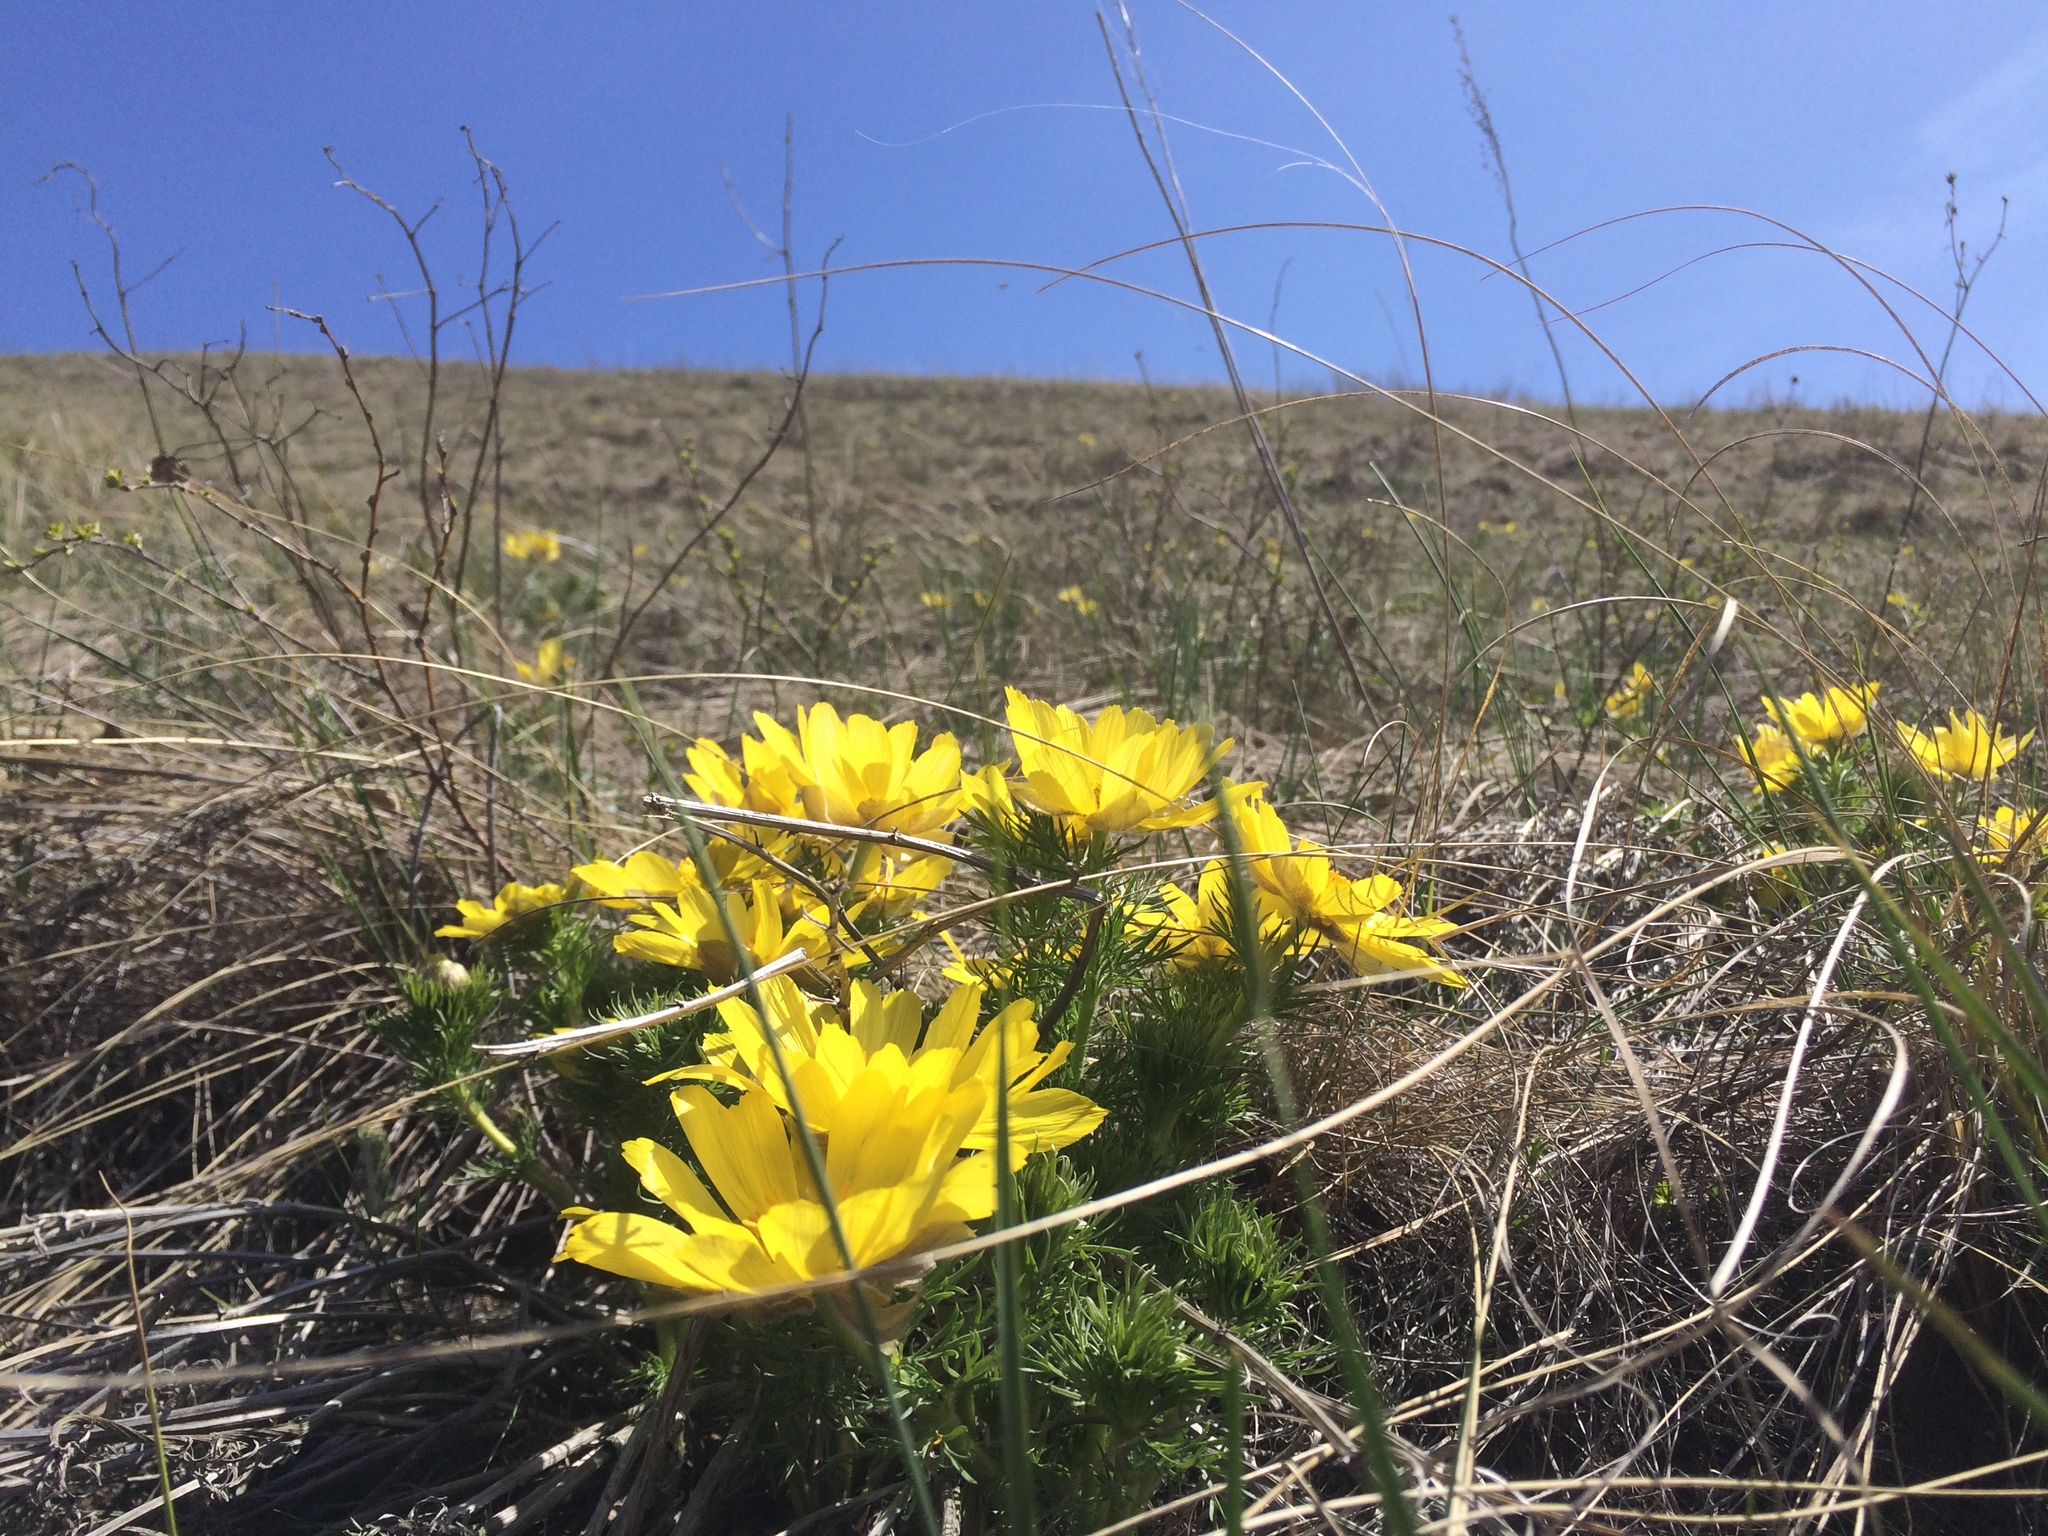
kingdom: Plantae
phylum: Tracheophyta
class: Magnoliopsida
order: Ranunculales
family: Ranunculaceae
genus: Adonis
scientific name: Adonis vernalis
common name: Yellow pheasants-eye
